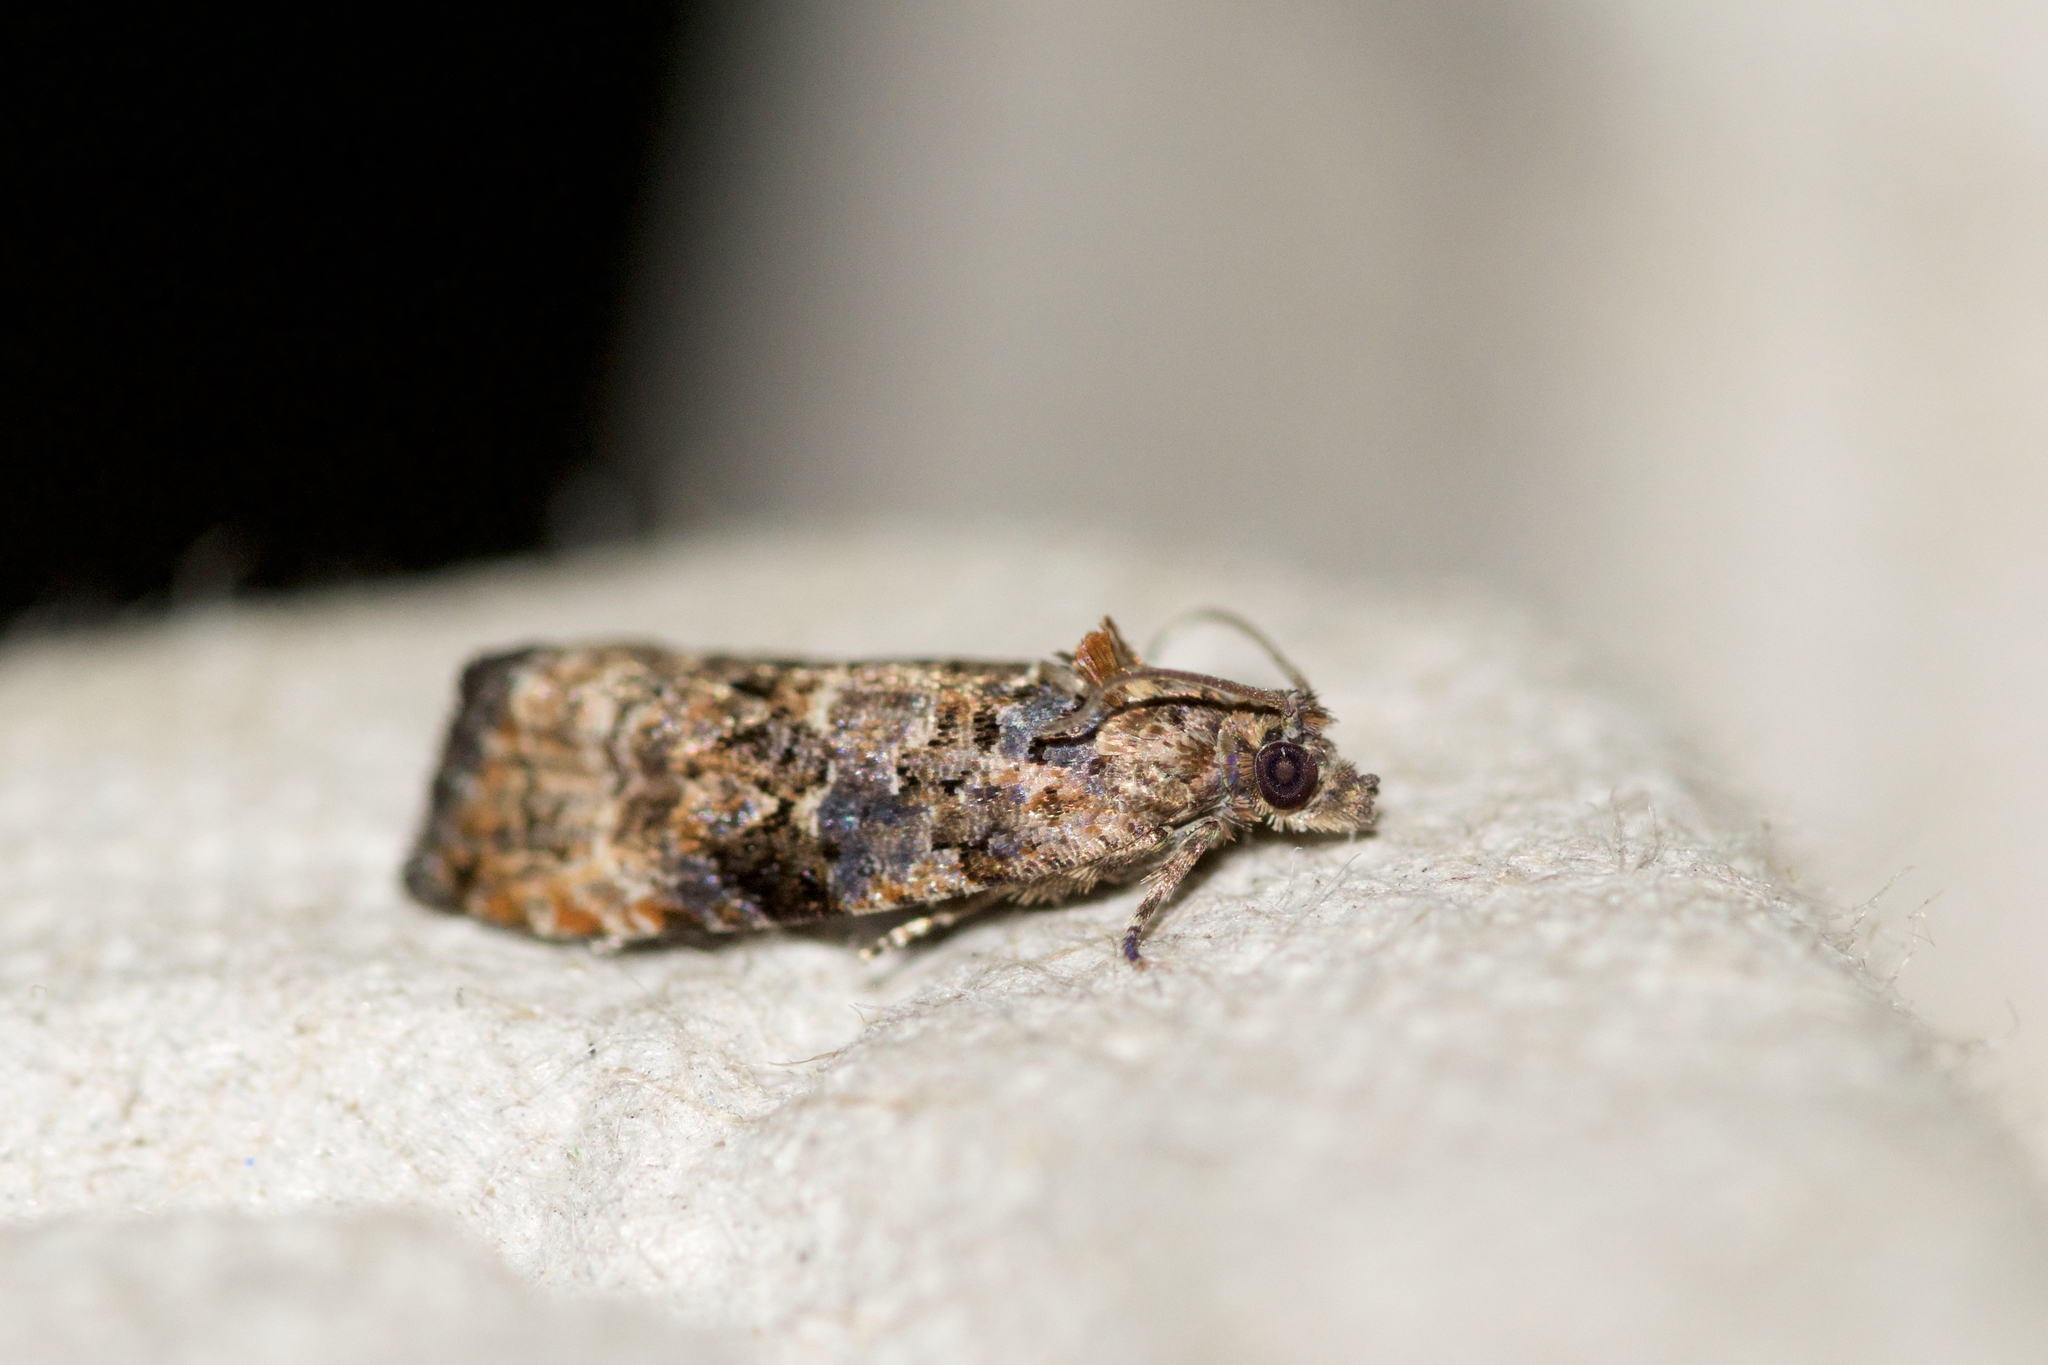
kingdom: Animalia
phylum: Arthropoda
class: Insecta
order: Lepidoptera
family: Tortricidae
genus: Endothenia
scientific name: Endothenia hebesana
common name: Verbena bud moth
